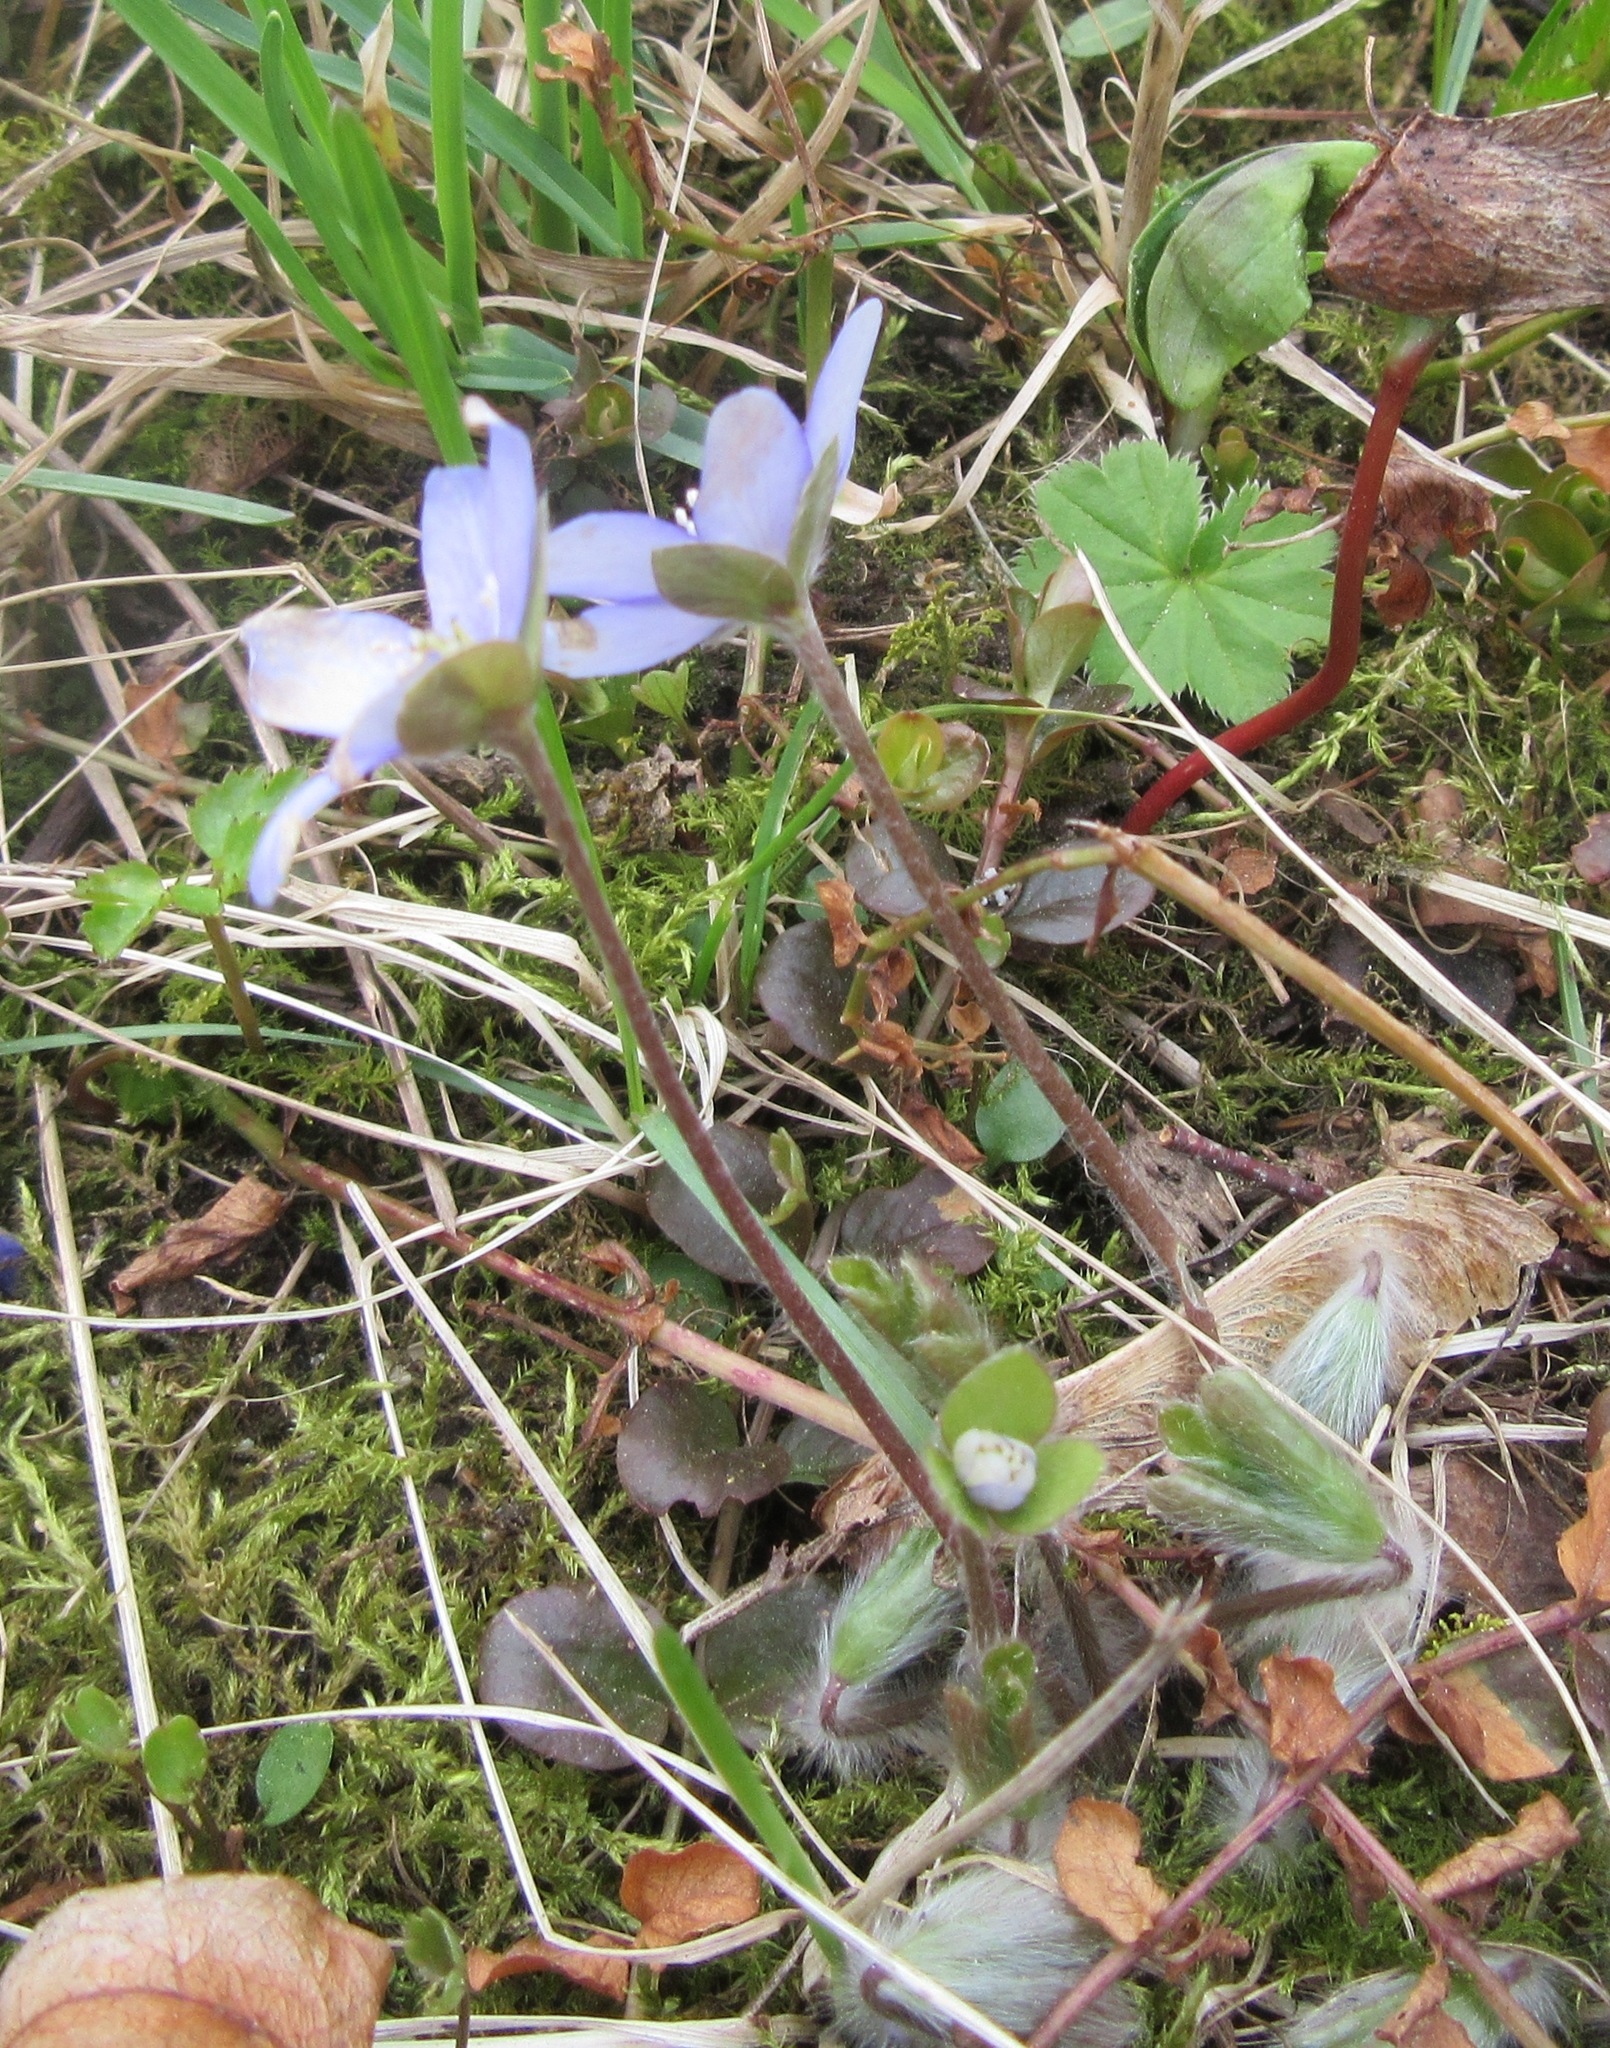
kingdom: Plantae
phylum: Tracheophyta
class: Magnoliopsida
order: Ranunculales
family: Ranunculaceae
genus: Hepatica
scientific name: Hepatica nobilis
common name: Liverleaf
